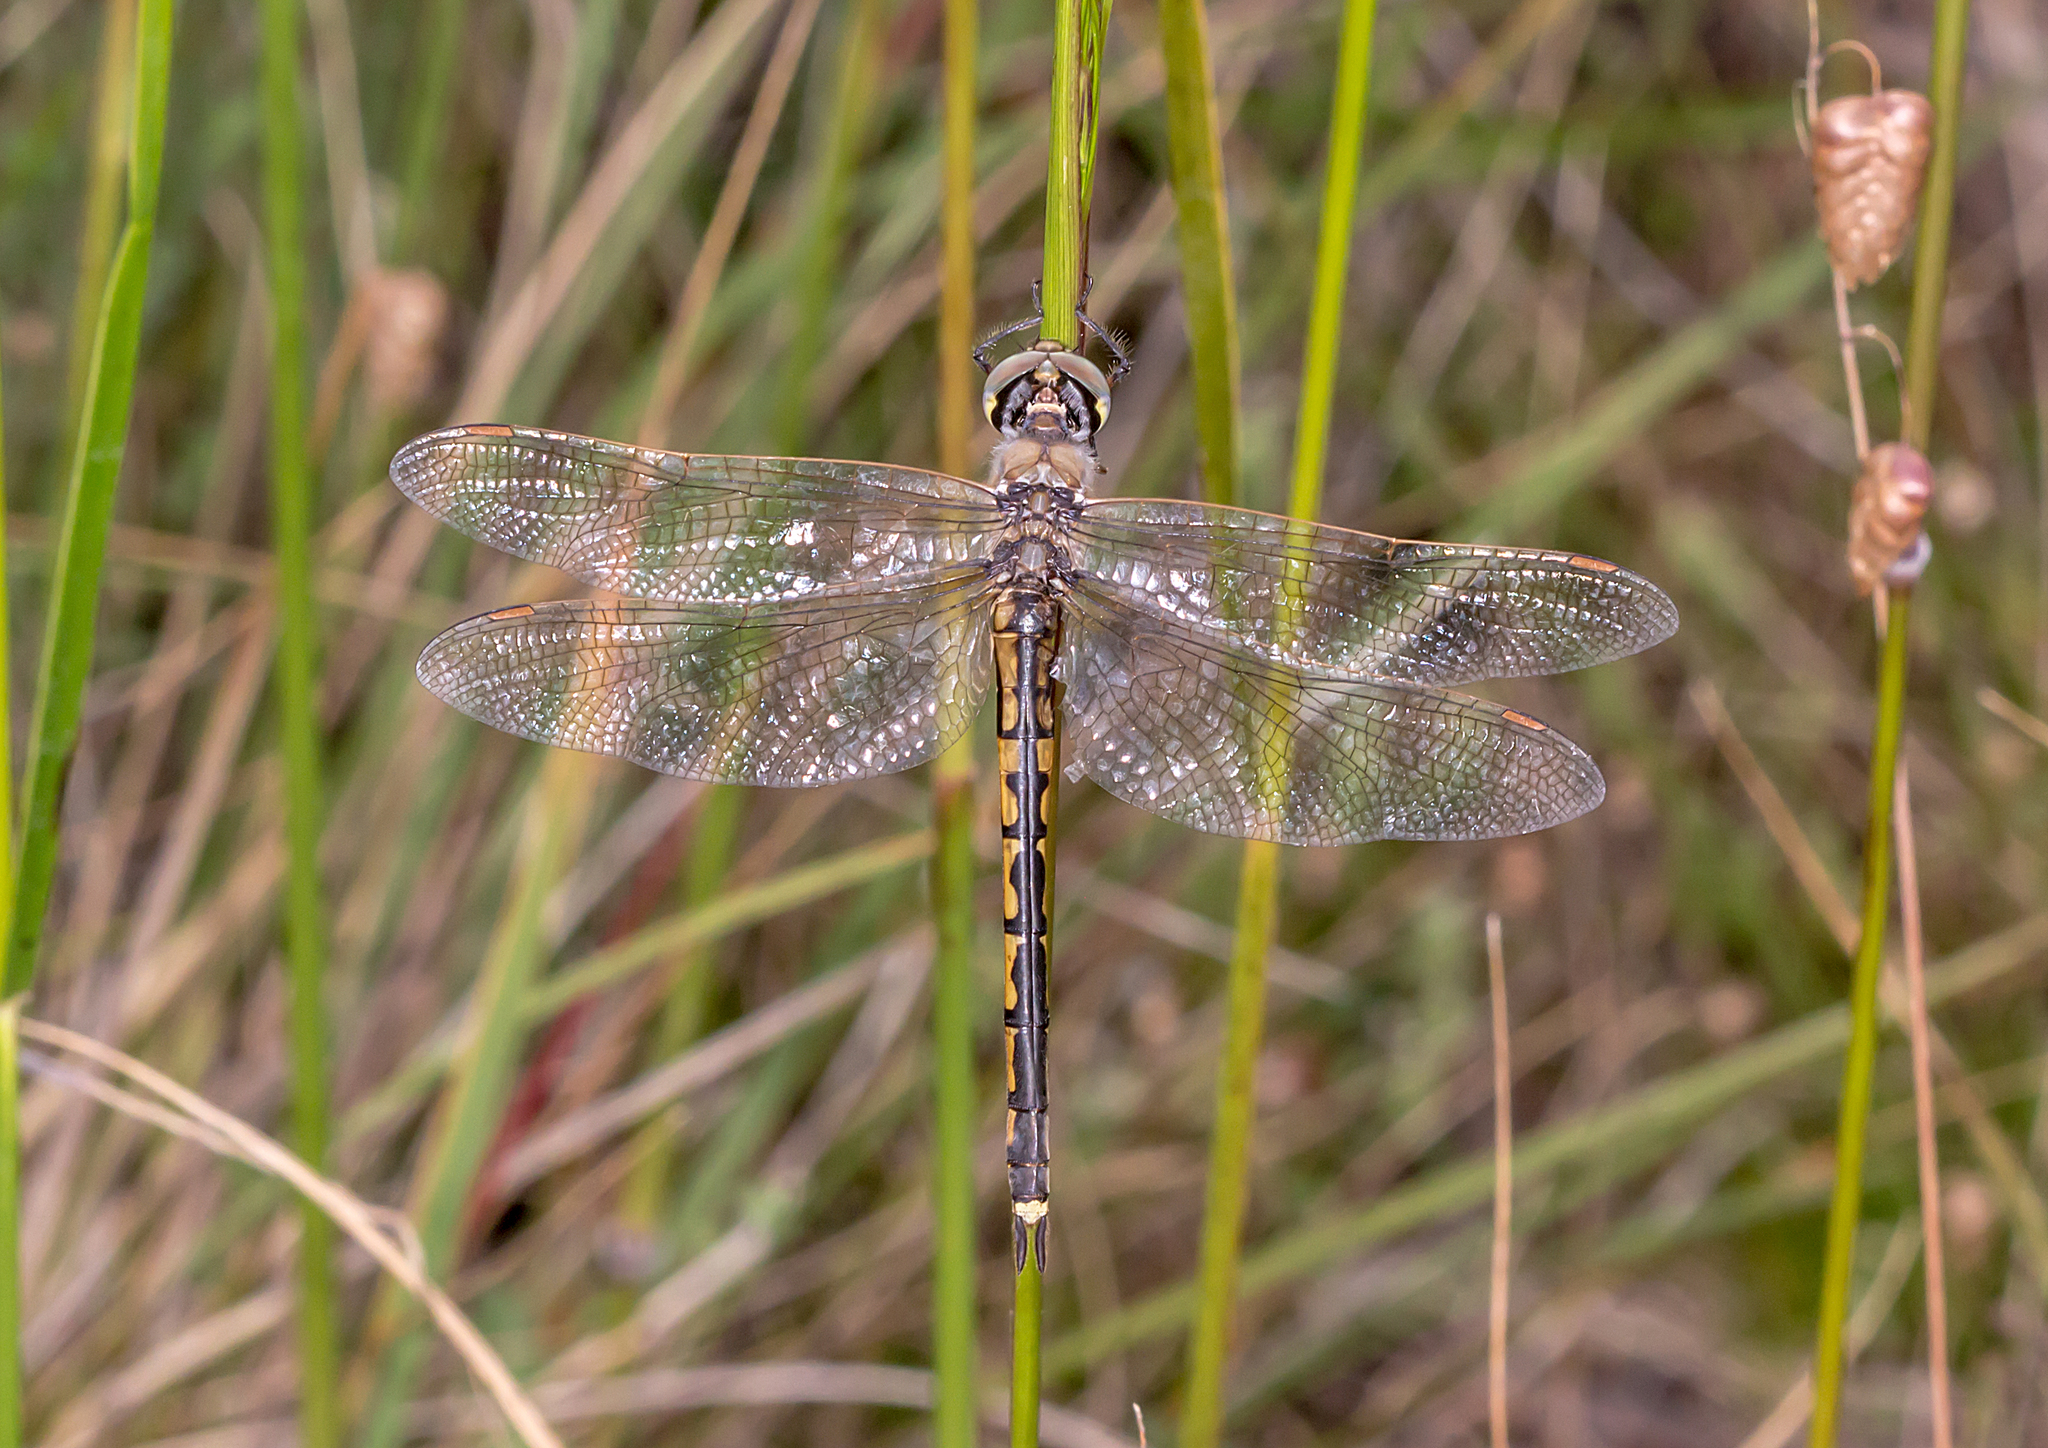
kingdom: Animalia
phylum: Arthropoda
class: Insecta
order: Odonata
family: Corduliidae
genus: Hemicordulia
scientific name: Hemicordulia tau
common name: Tau emerald
